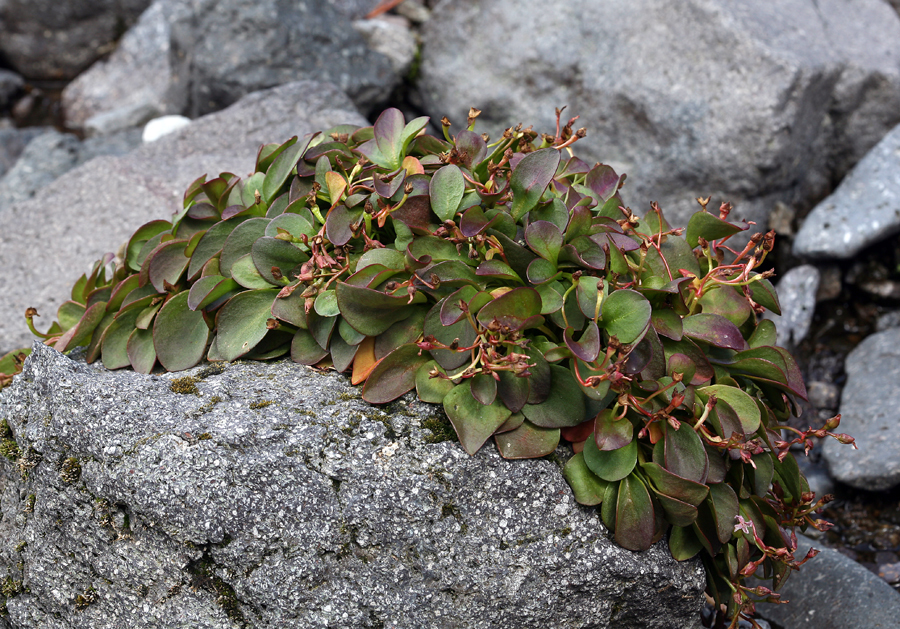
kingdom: Plantae
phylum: Tracheophyta
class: Magnoliopsida
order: Caryophyllales
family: Montiaceae
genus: Claytonia
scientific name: Claytonia nevadensis
